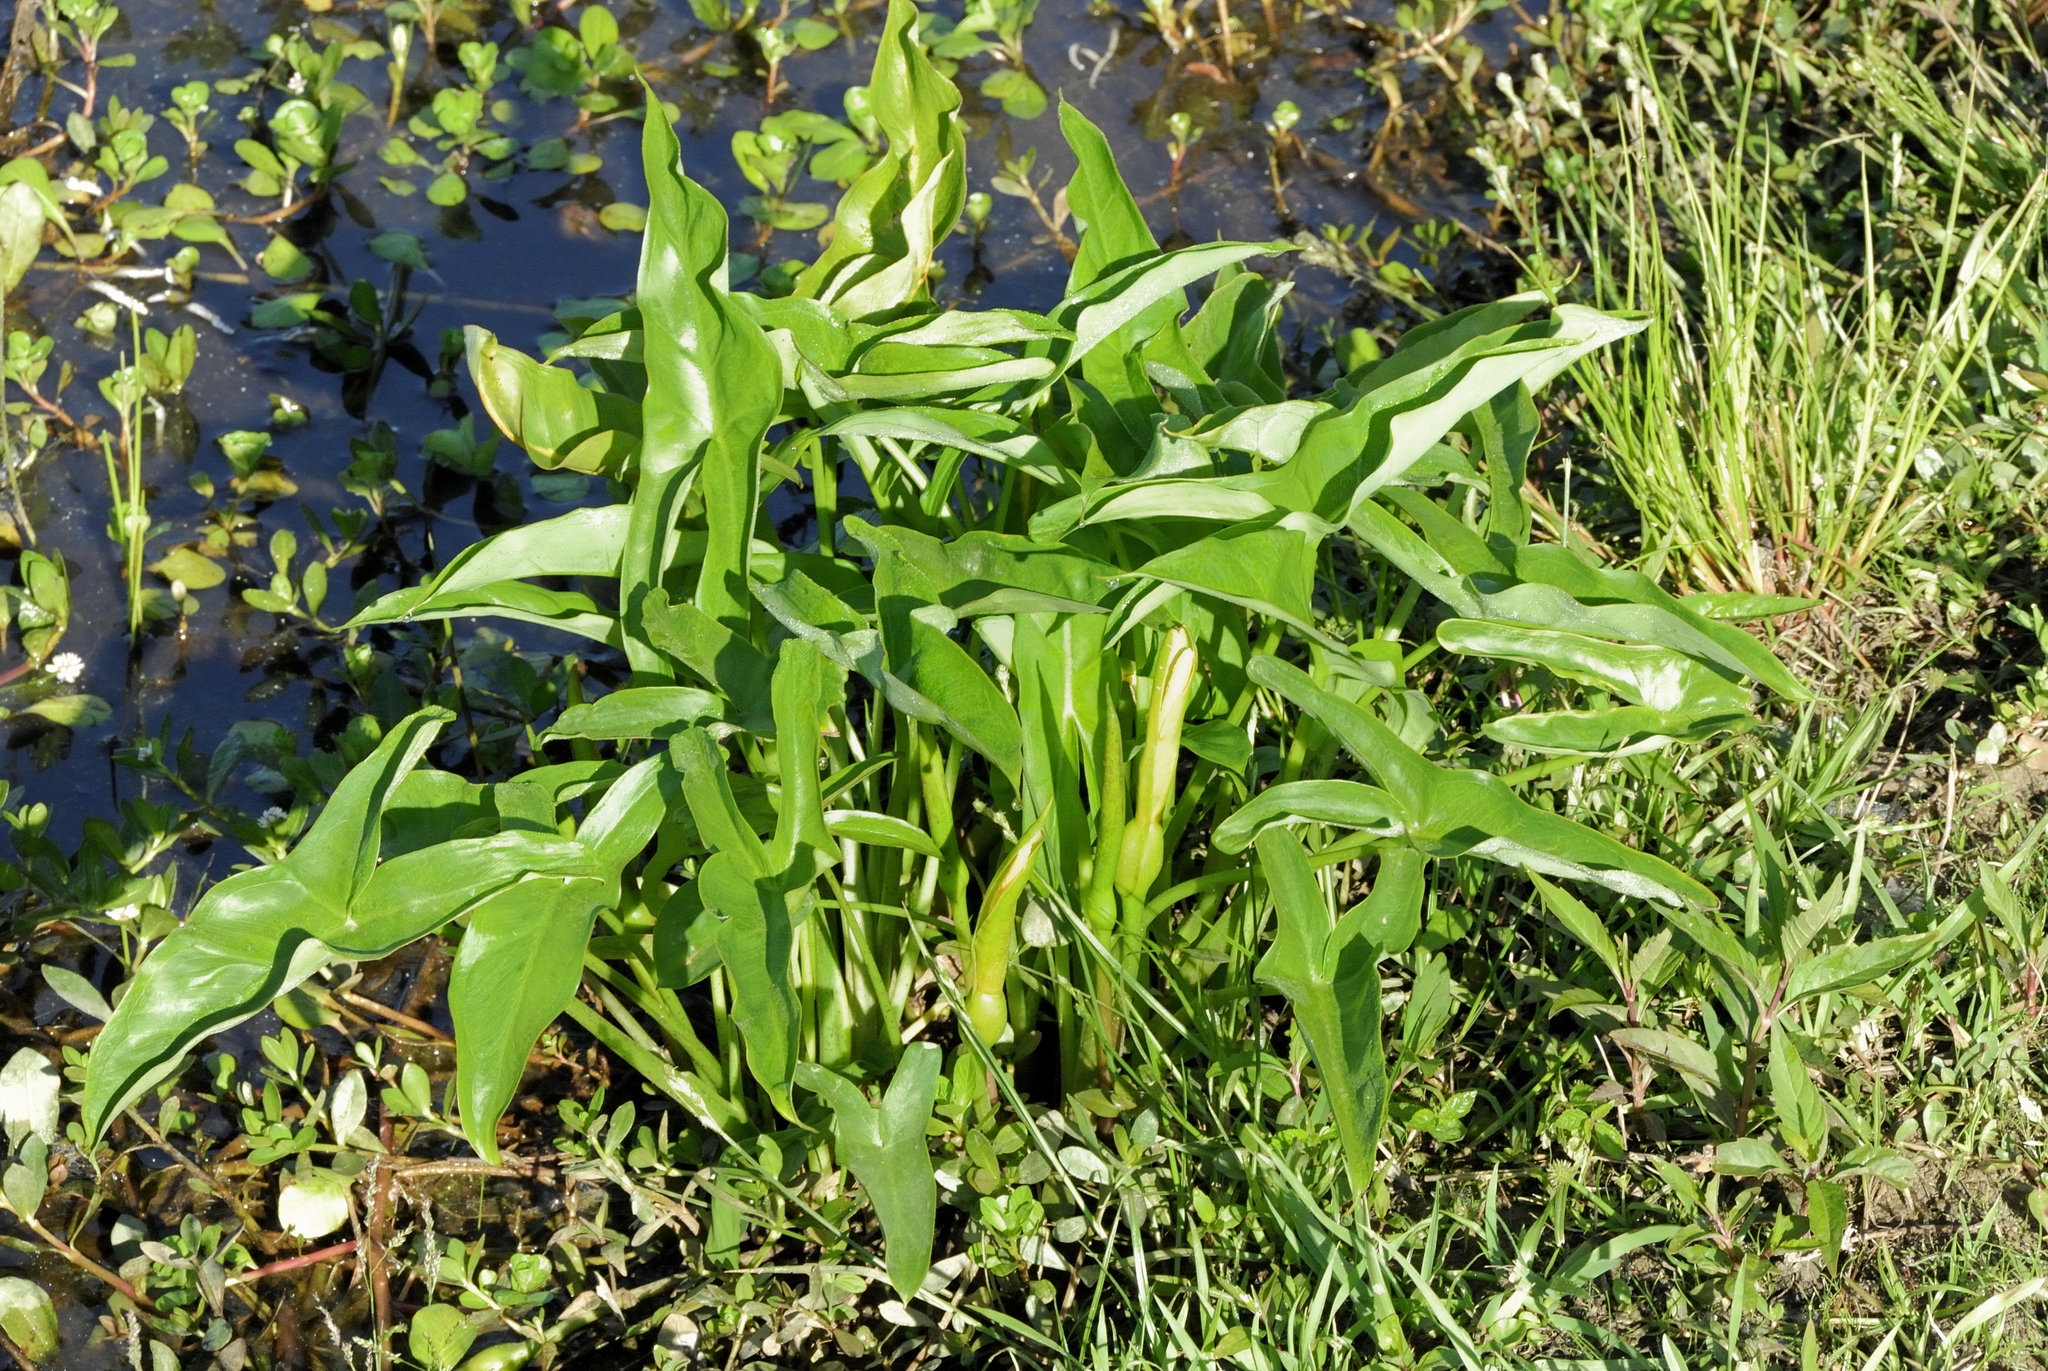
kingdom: Plantae
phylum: Tracheophyta
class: Liliopsida
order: Alismatales
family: Araceae
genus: Peltandra
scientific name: Peltandra virginica
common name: Arrow arum
